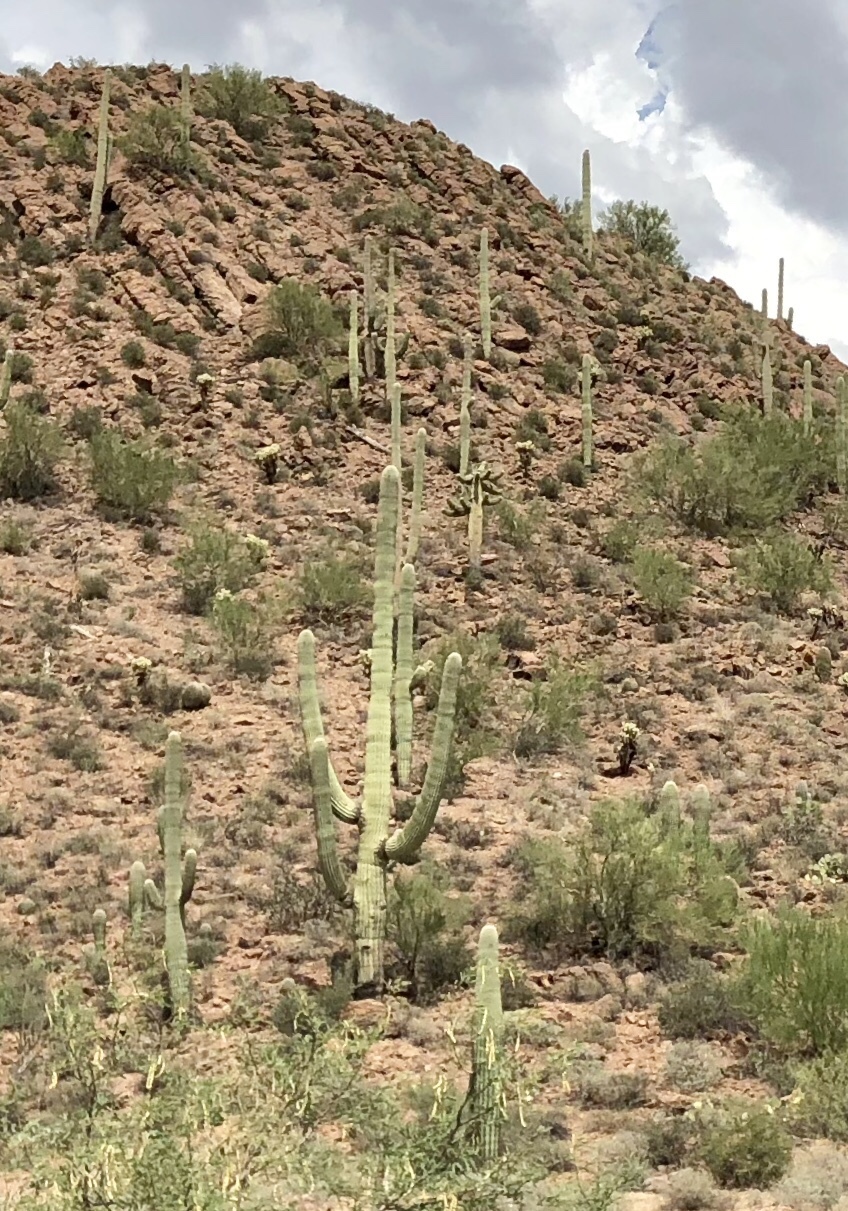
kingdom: Plantae
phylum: Tracheophyta
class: Magnoliopsida
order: Caryophyllales
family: Cactaceae
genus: Carnegiea
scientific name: Carnegiea gigantea
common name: Saguaro
